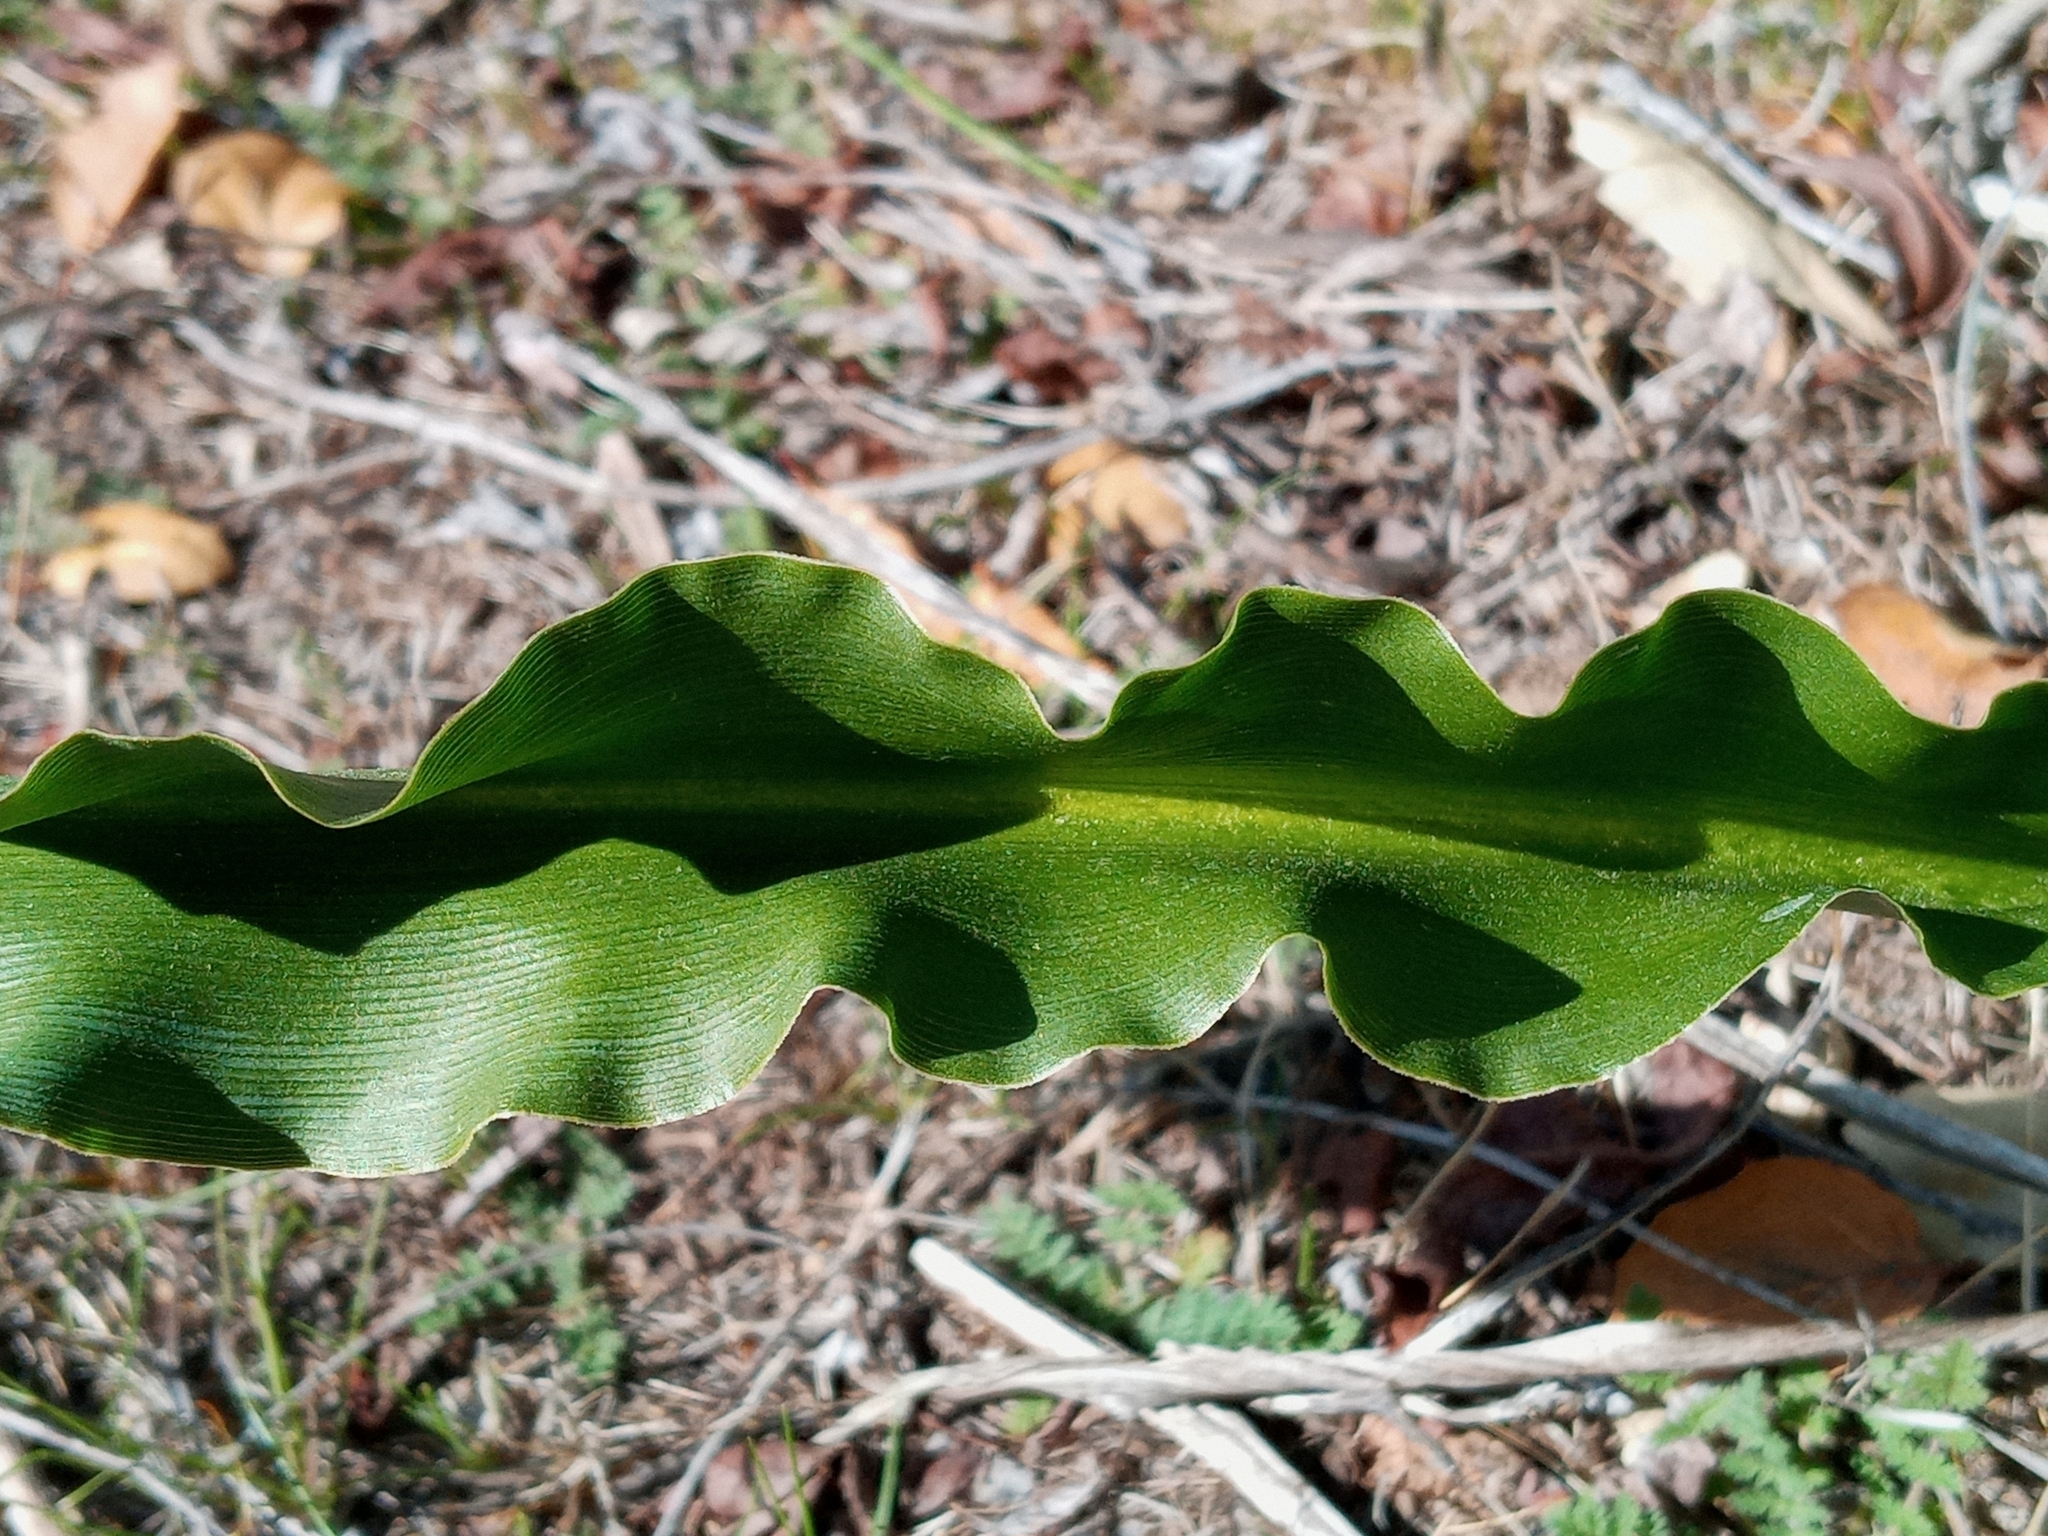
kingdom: Plantae
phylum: Tracheophyta
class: Liliopsida
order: Asparagales
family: Asparagaceae
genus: Chlorogalum
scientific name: Chlorogalum pomeridianum
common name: Amole
